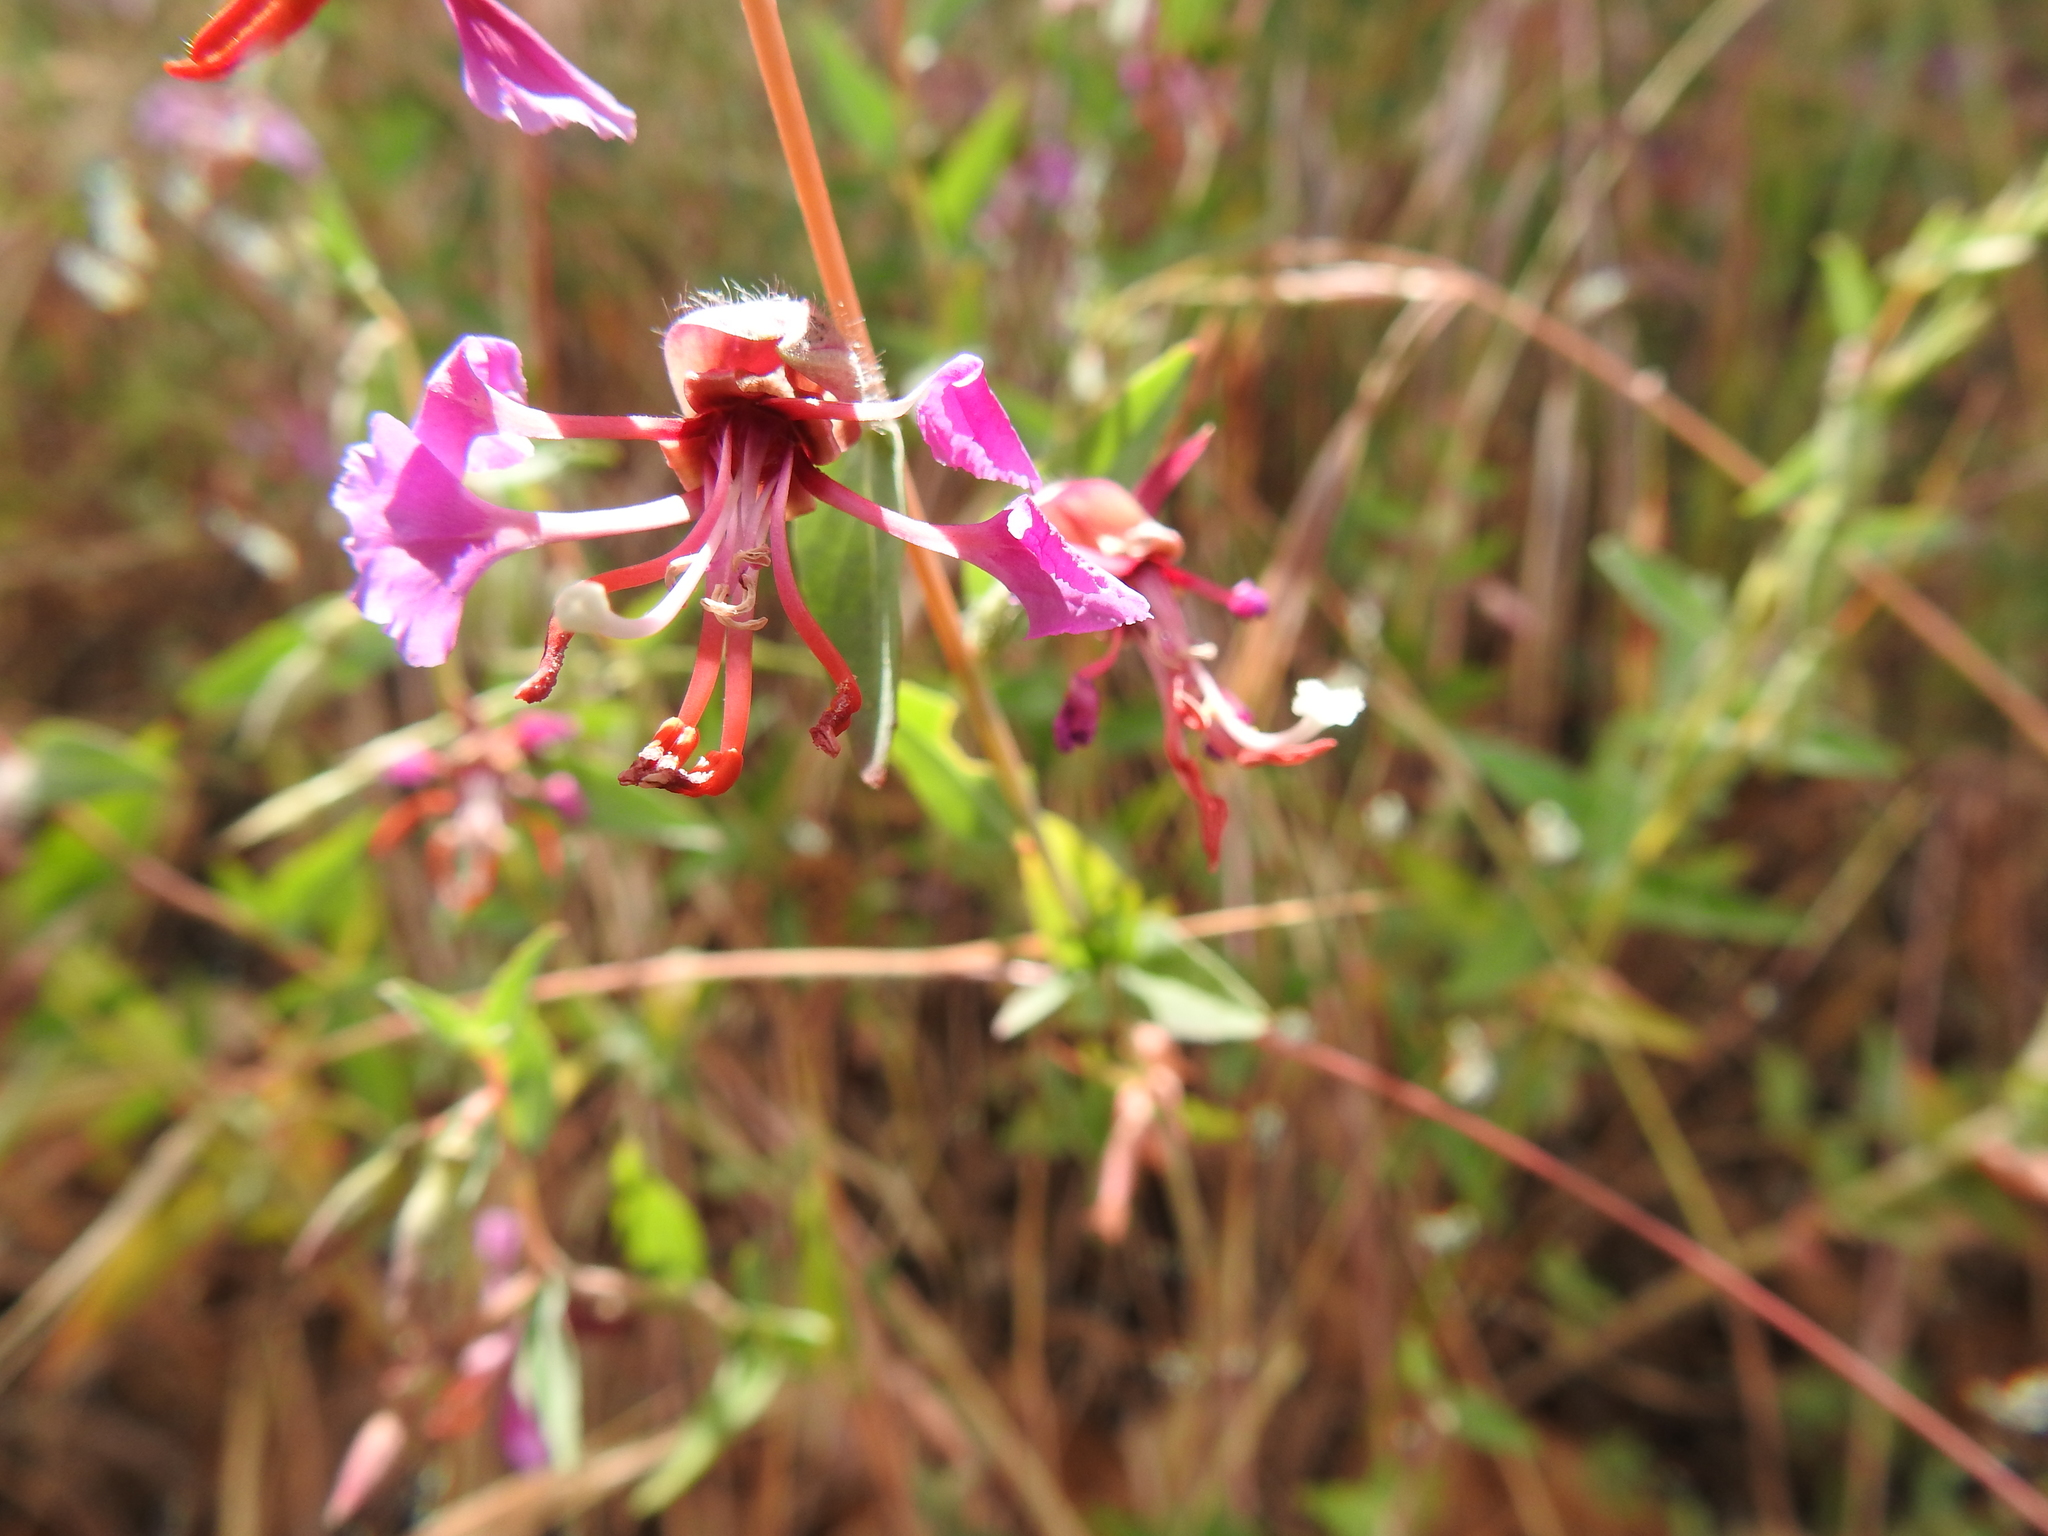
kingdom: Plantae
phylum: Tracheophyta
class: Magnoliopsida
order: Myrtales
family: Onagraceae
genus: Clarkia
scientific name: Clarkia unguiculata
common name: Clarkia
